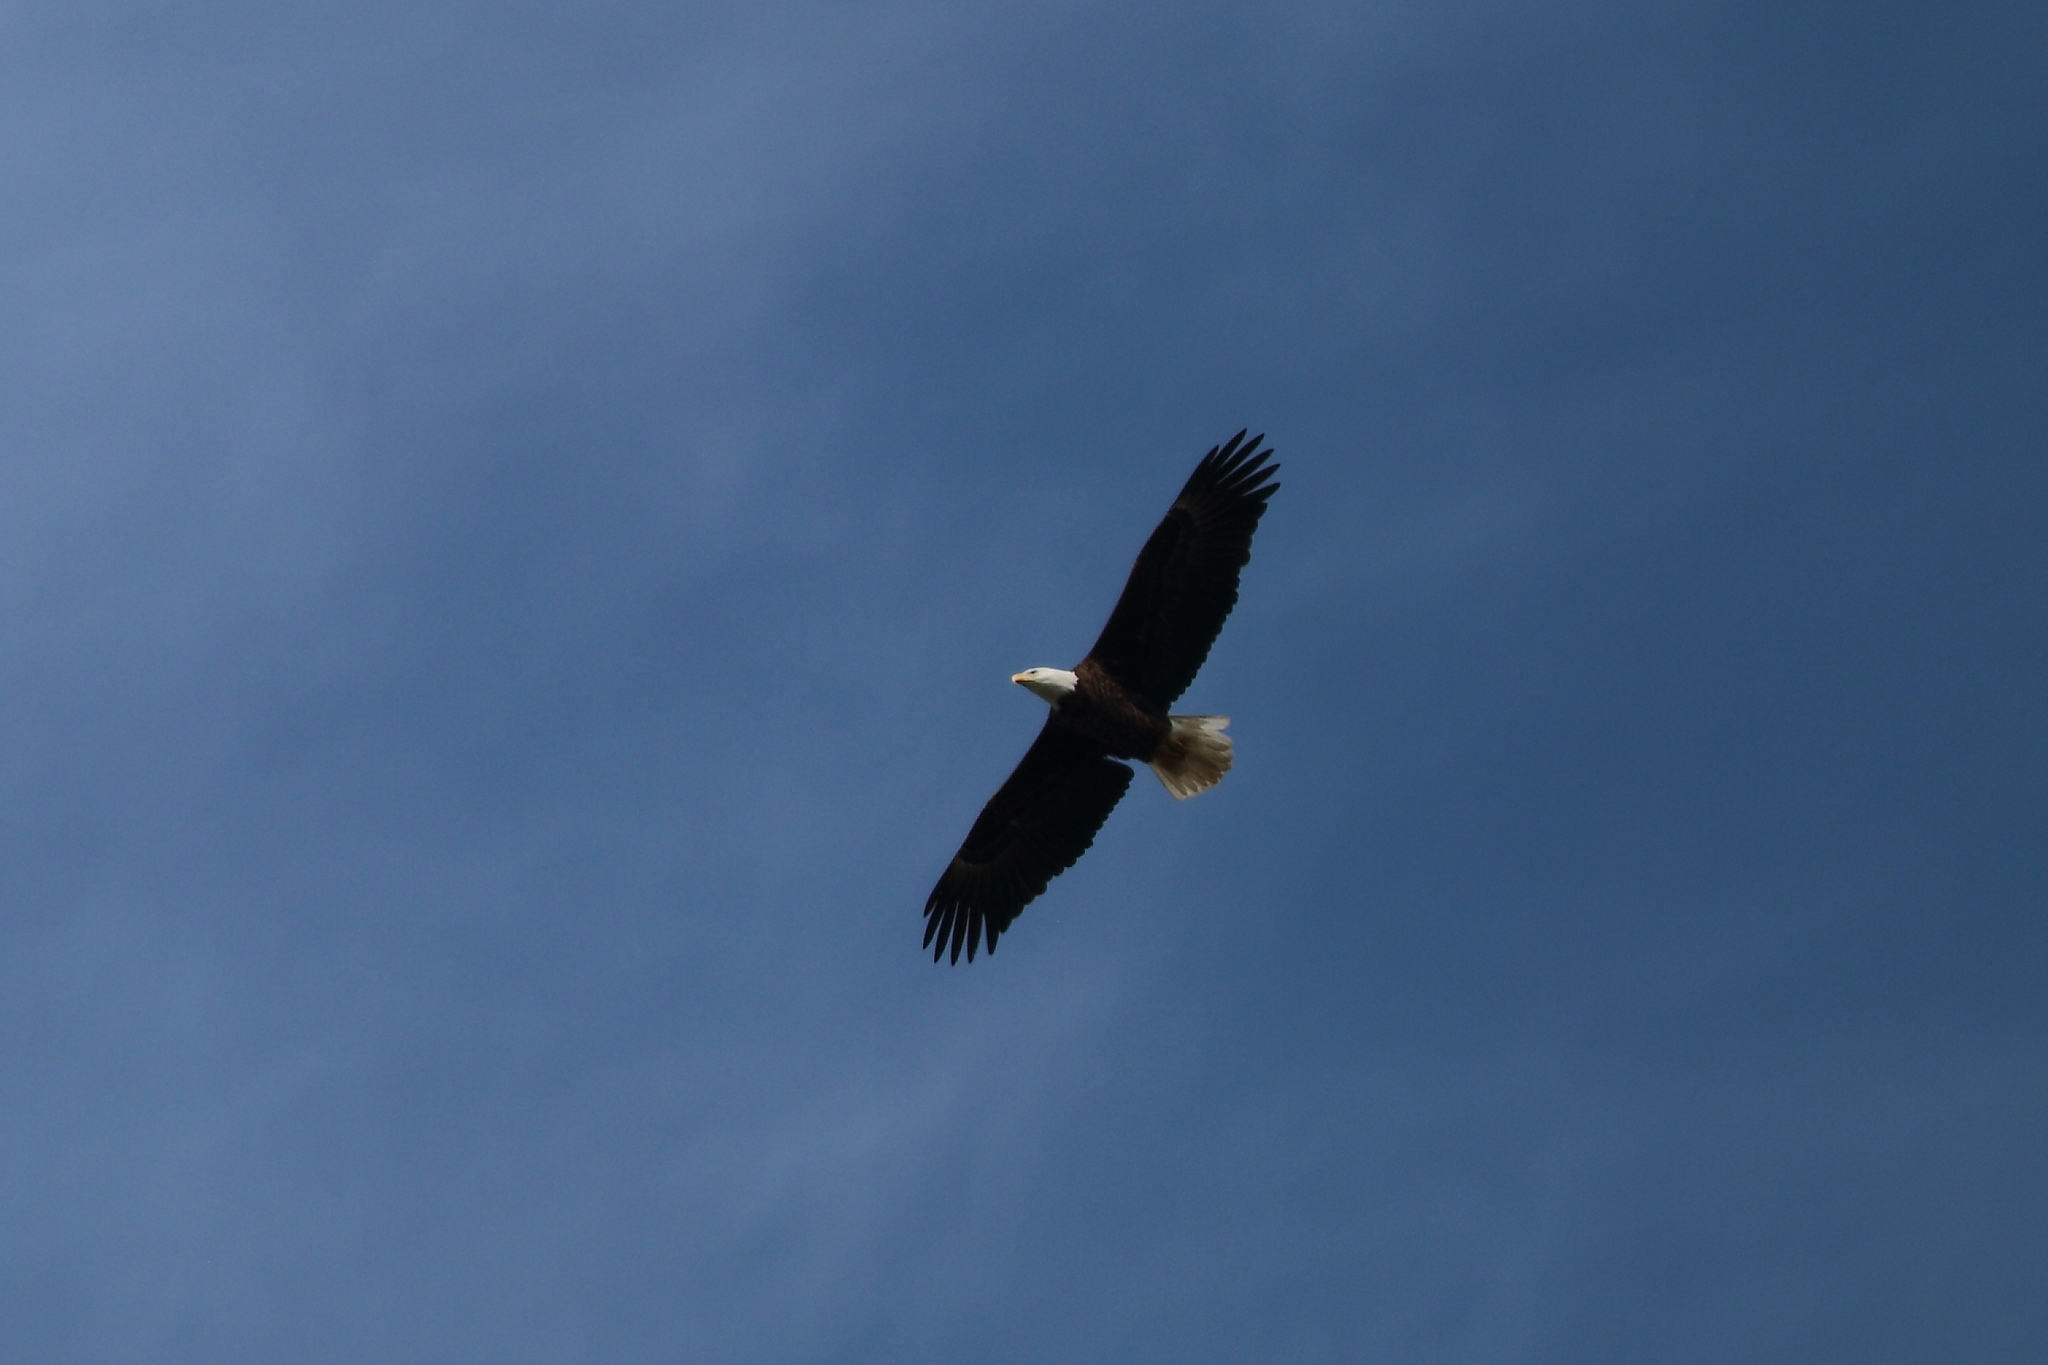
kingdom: Animalia
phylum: Chordata
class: Aves
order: Accipitriformes
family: Accipitridae
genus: Haliaeetus
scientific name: Haliaeetus leucocephalus
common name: Bald eagle
